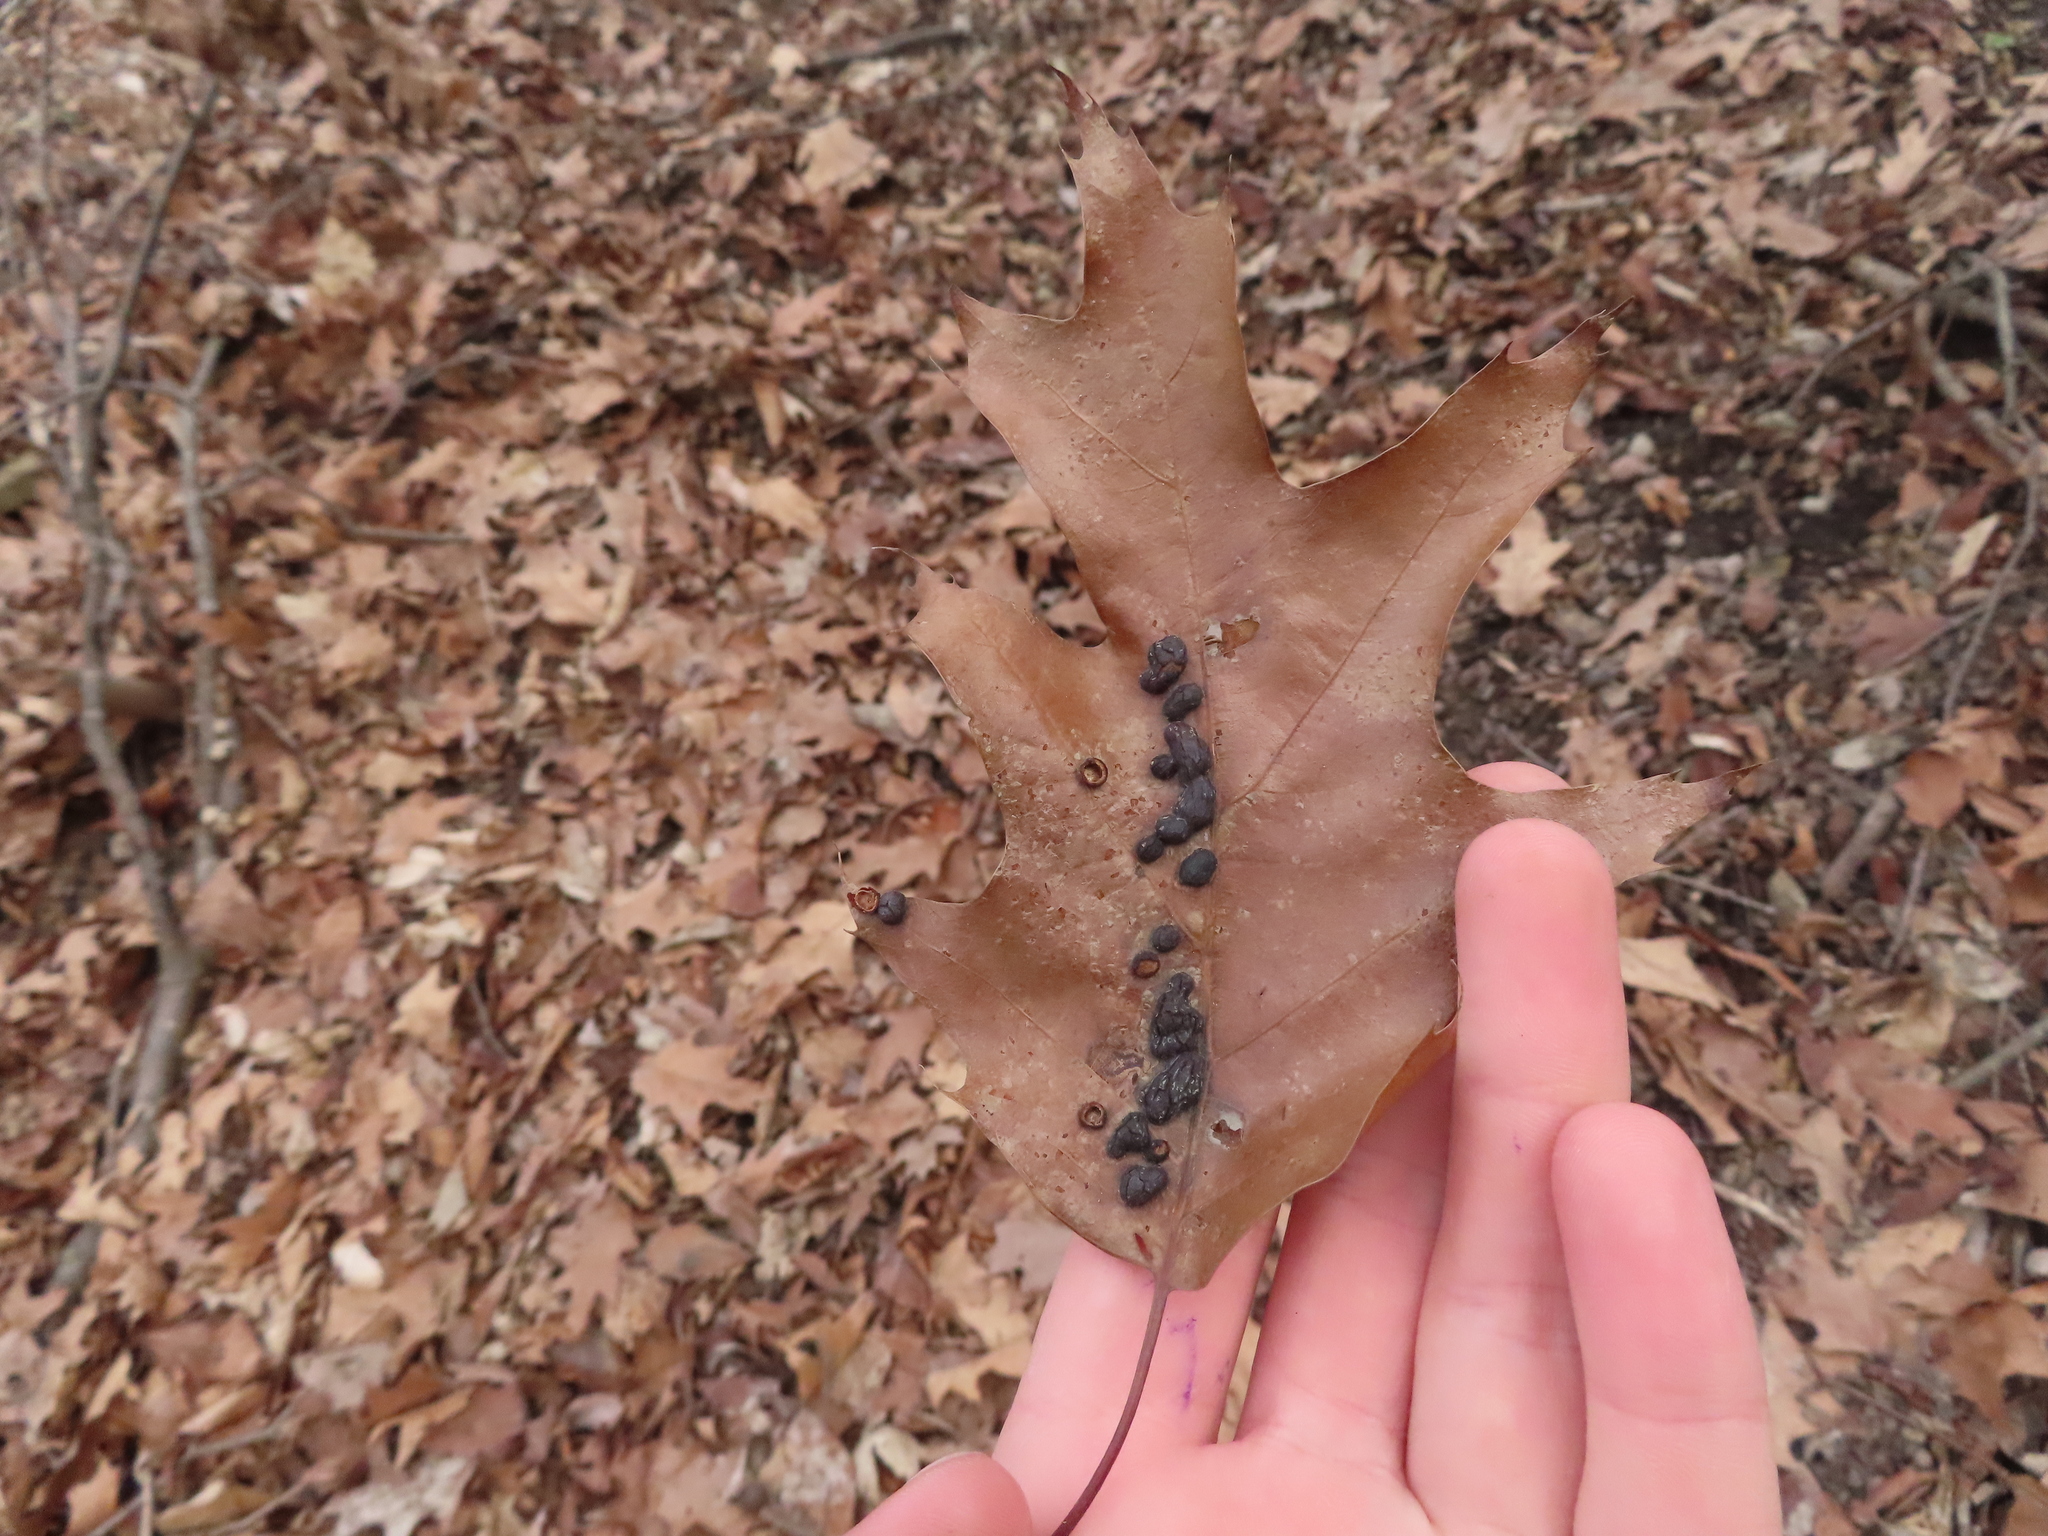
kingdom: Animalia
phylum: Arthropoda
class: Insecta
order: Diptera
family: Cecidomyiidae
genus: Polystepha
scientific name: Polystepha pilulae
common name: Oak leaf gall midge
